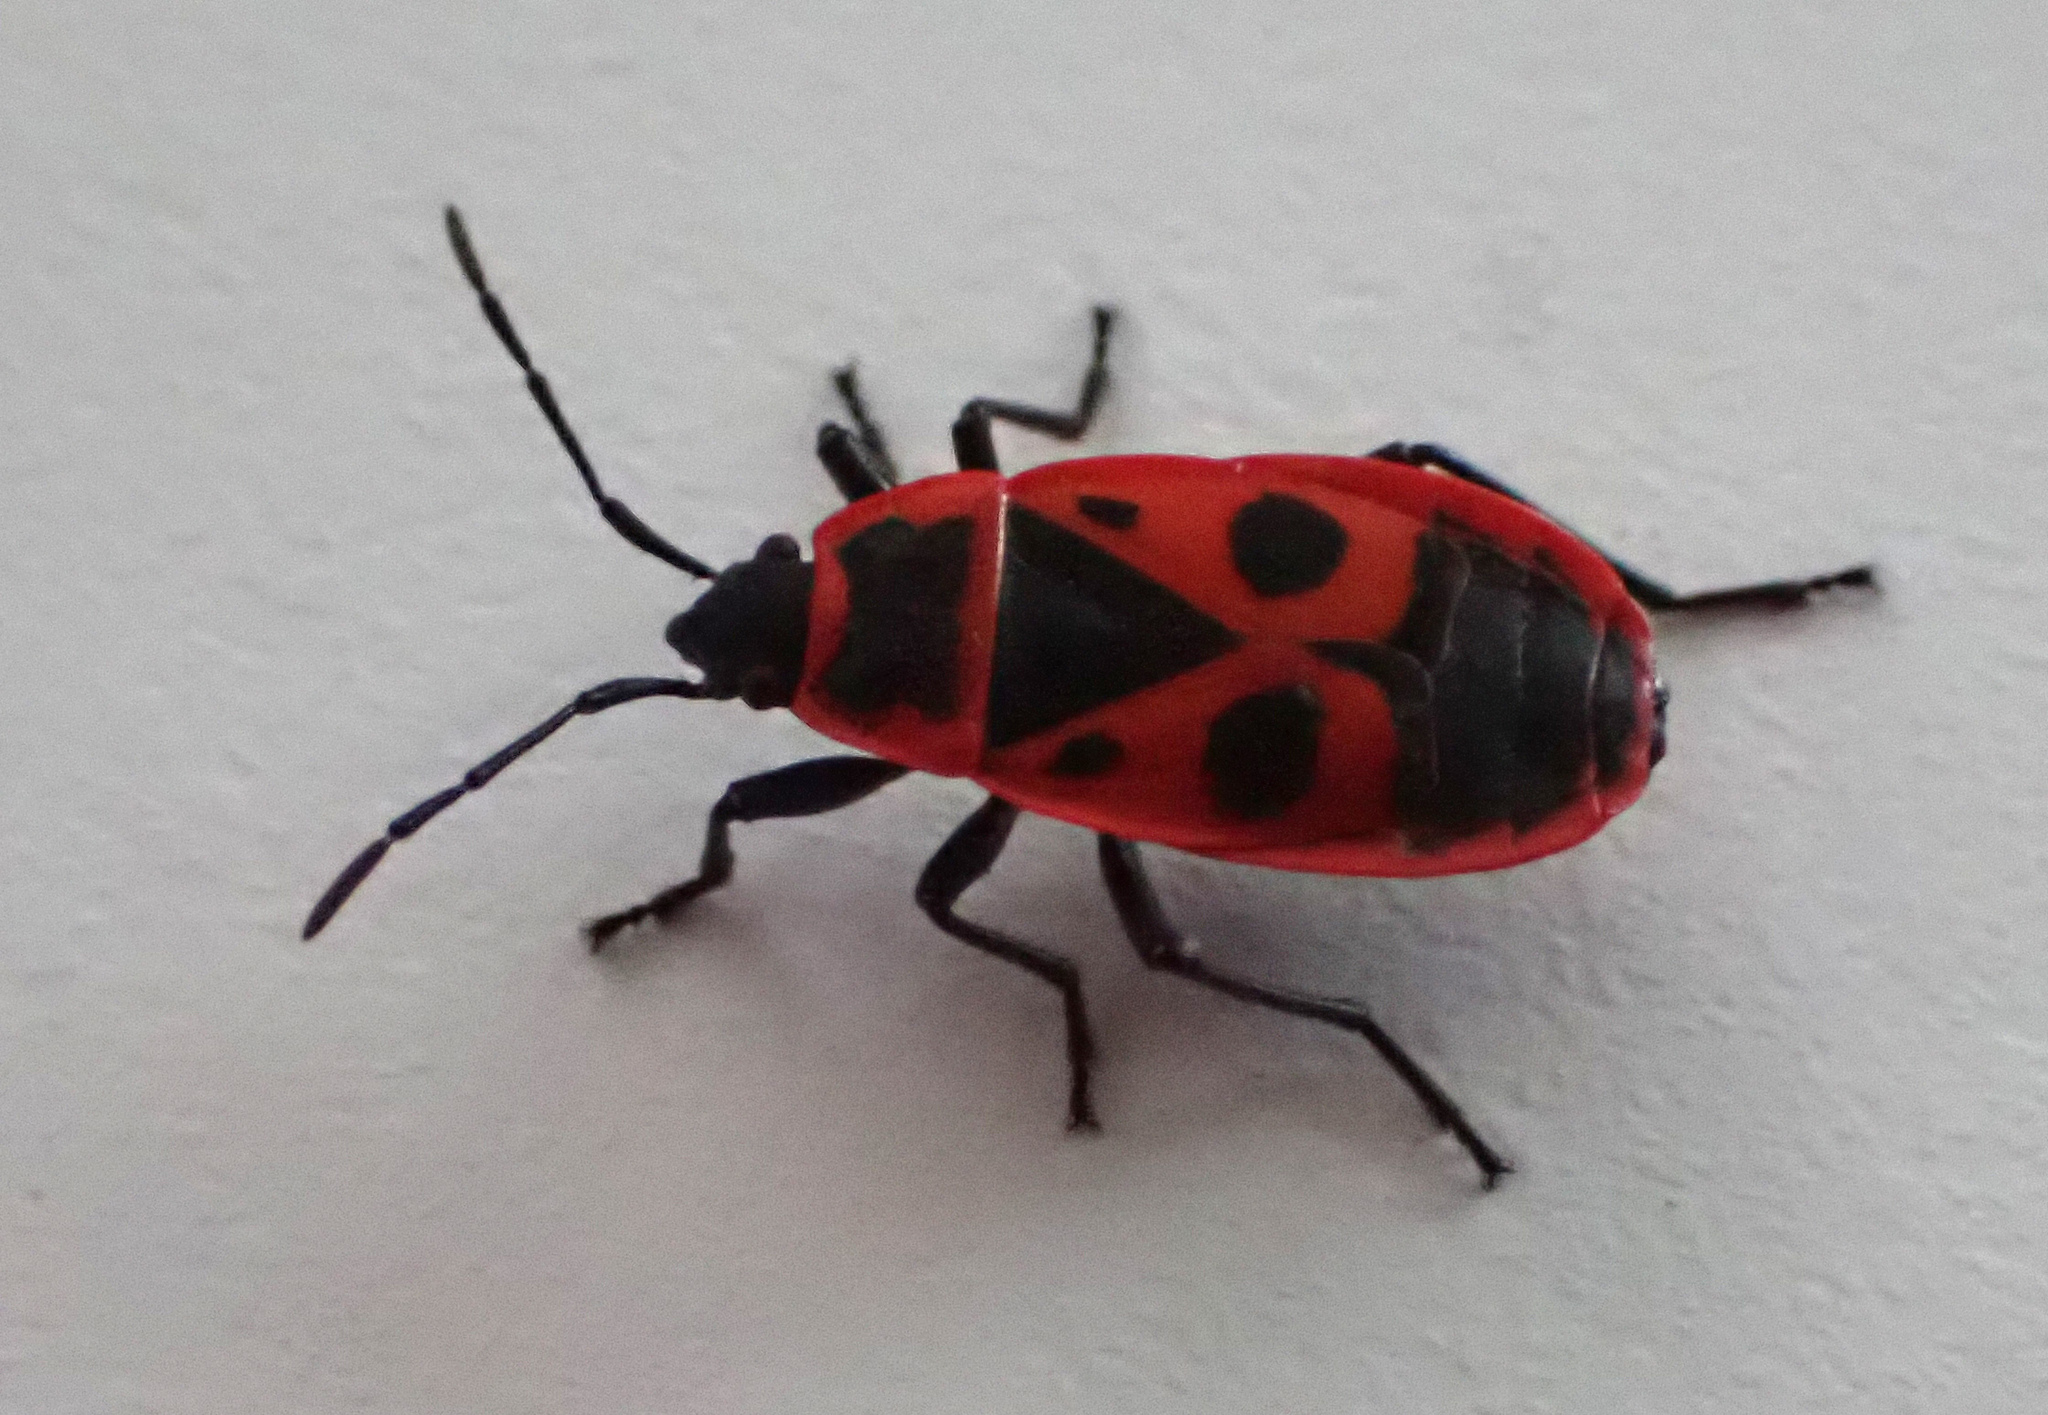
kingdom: Animalia
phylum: Arthropoda
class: Insecta
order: Hemiptera
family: Pyrrhocoridae
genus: Pyrrhocoris
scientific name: Pyrrhocoris apterus
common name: Firebug
